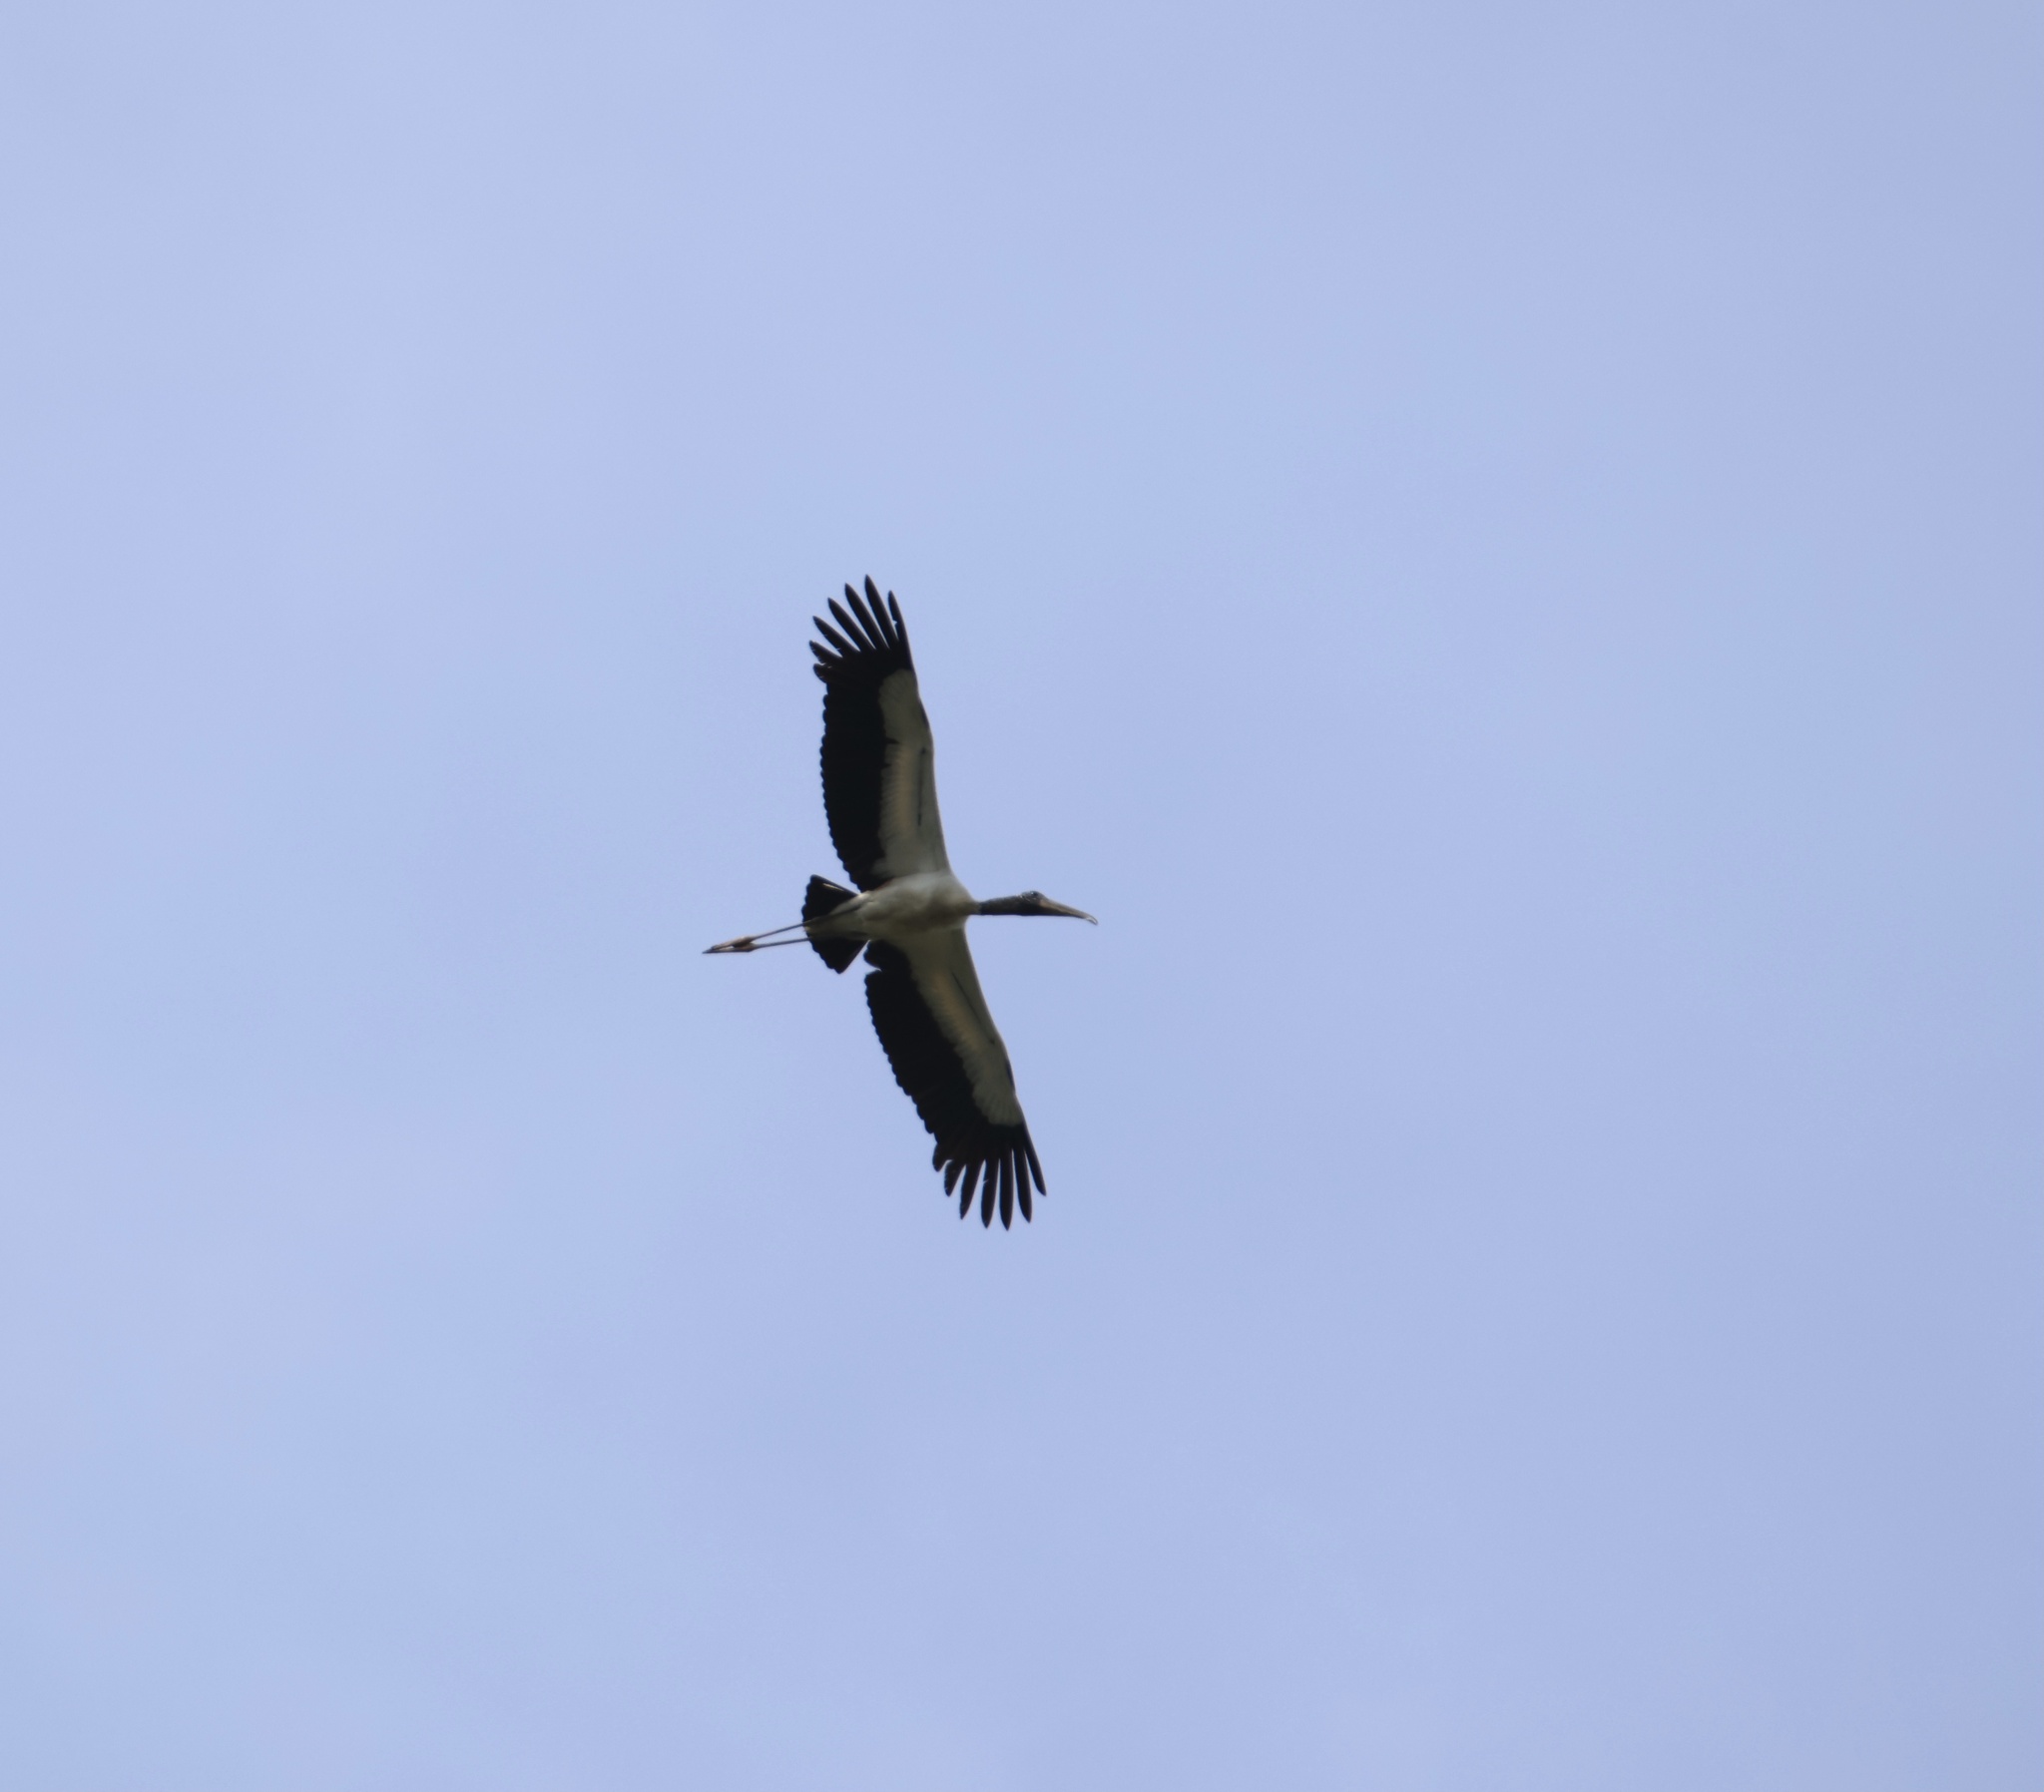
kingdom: Animalia
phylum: Chordata
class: Aves
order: Ciconiiformes
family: Ciconiidae
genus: Mycteria
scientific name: Mycteria americana
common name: Wood stork
